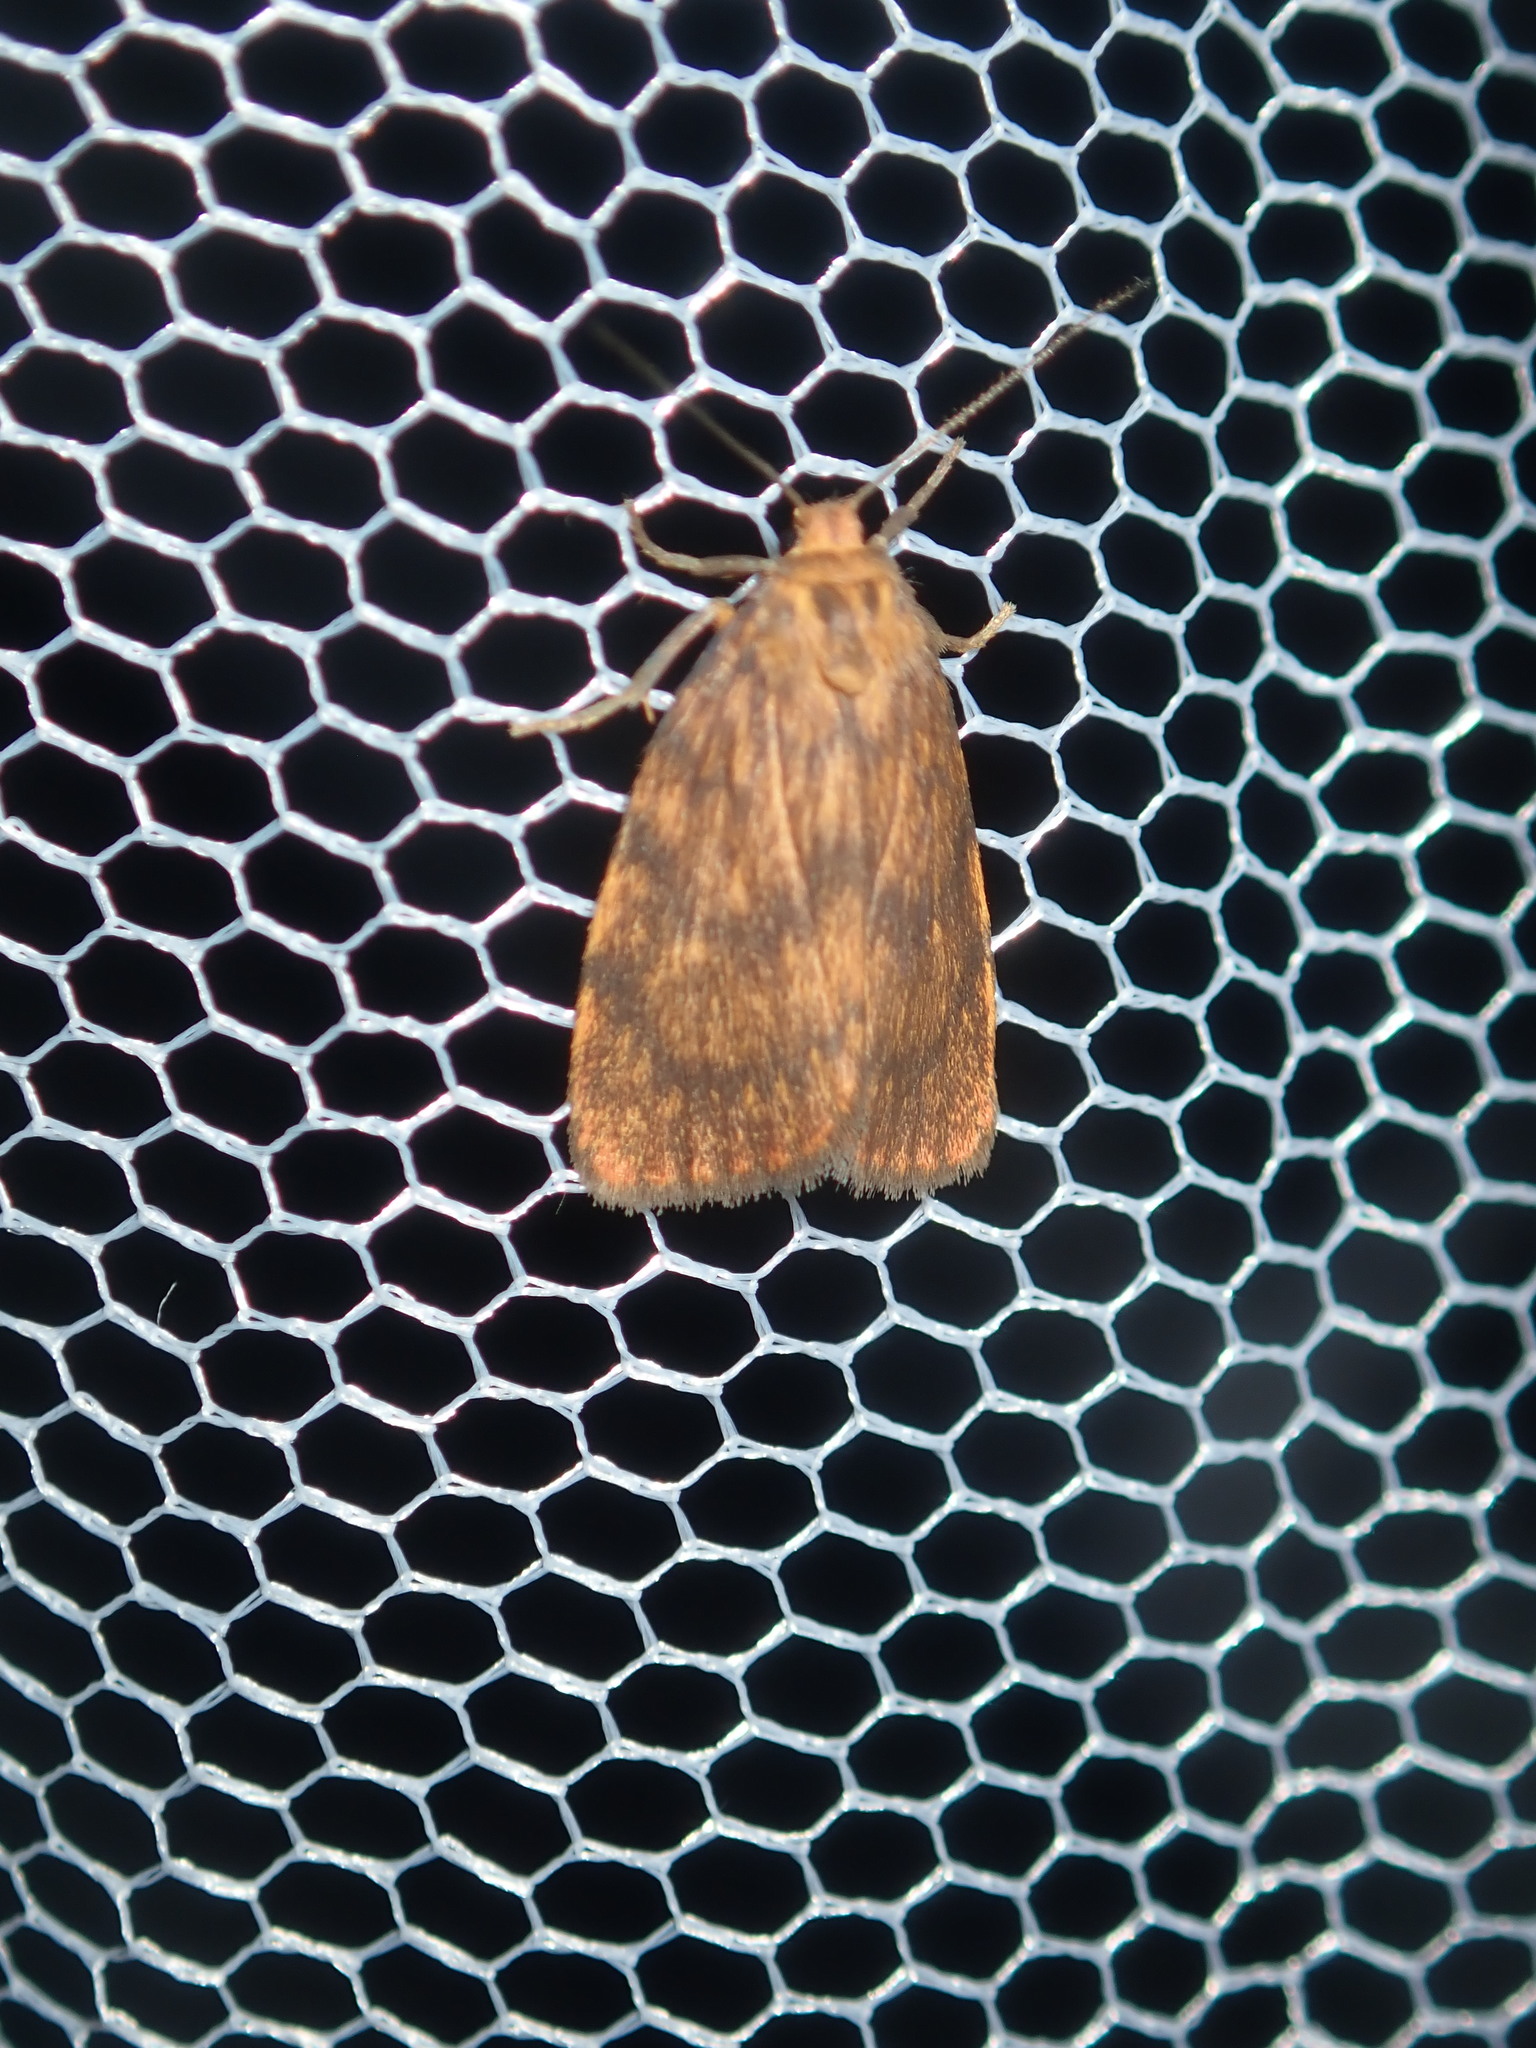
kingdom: Animalia
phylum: Arthropoda
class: Insecta
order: Lepidoptera
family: Erebidae
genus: Cyme
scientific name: Cyme structa
